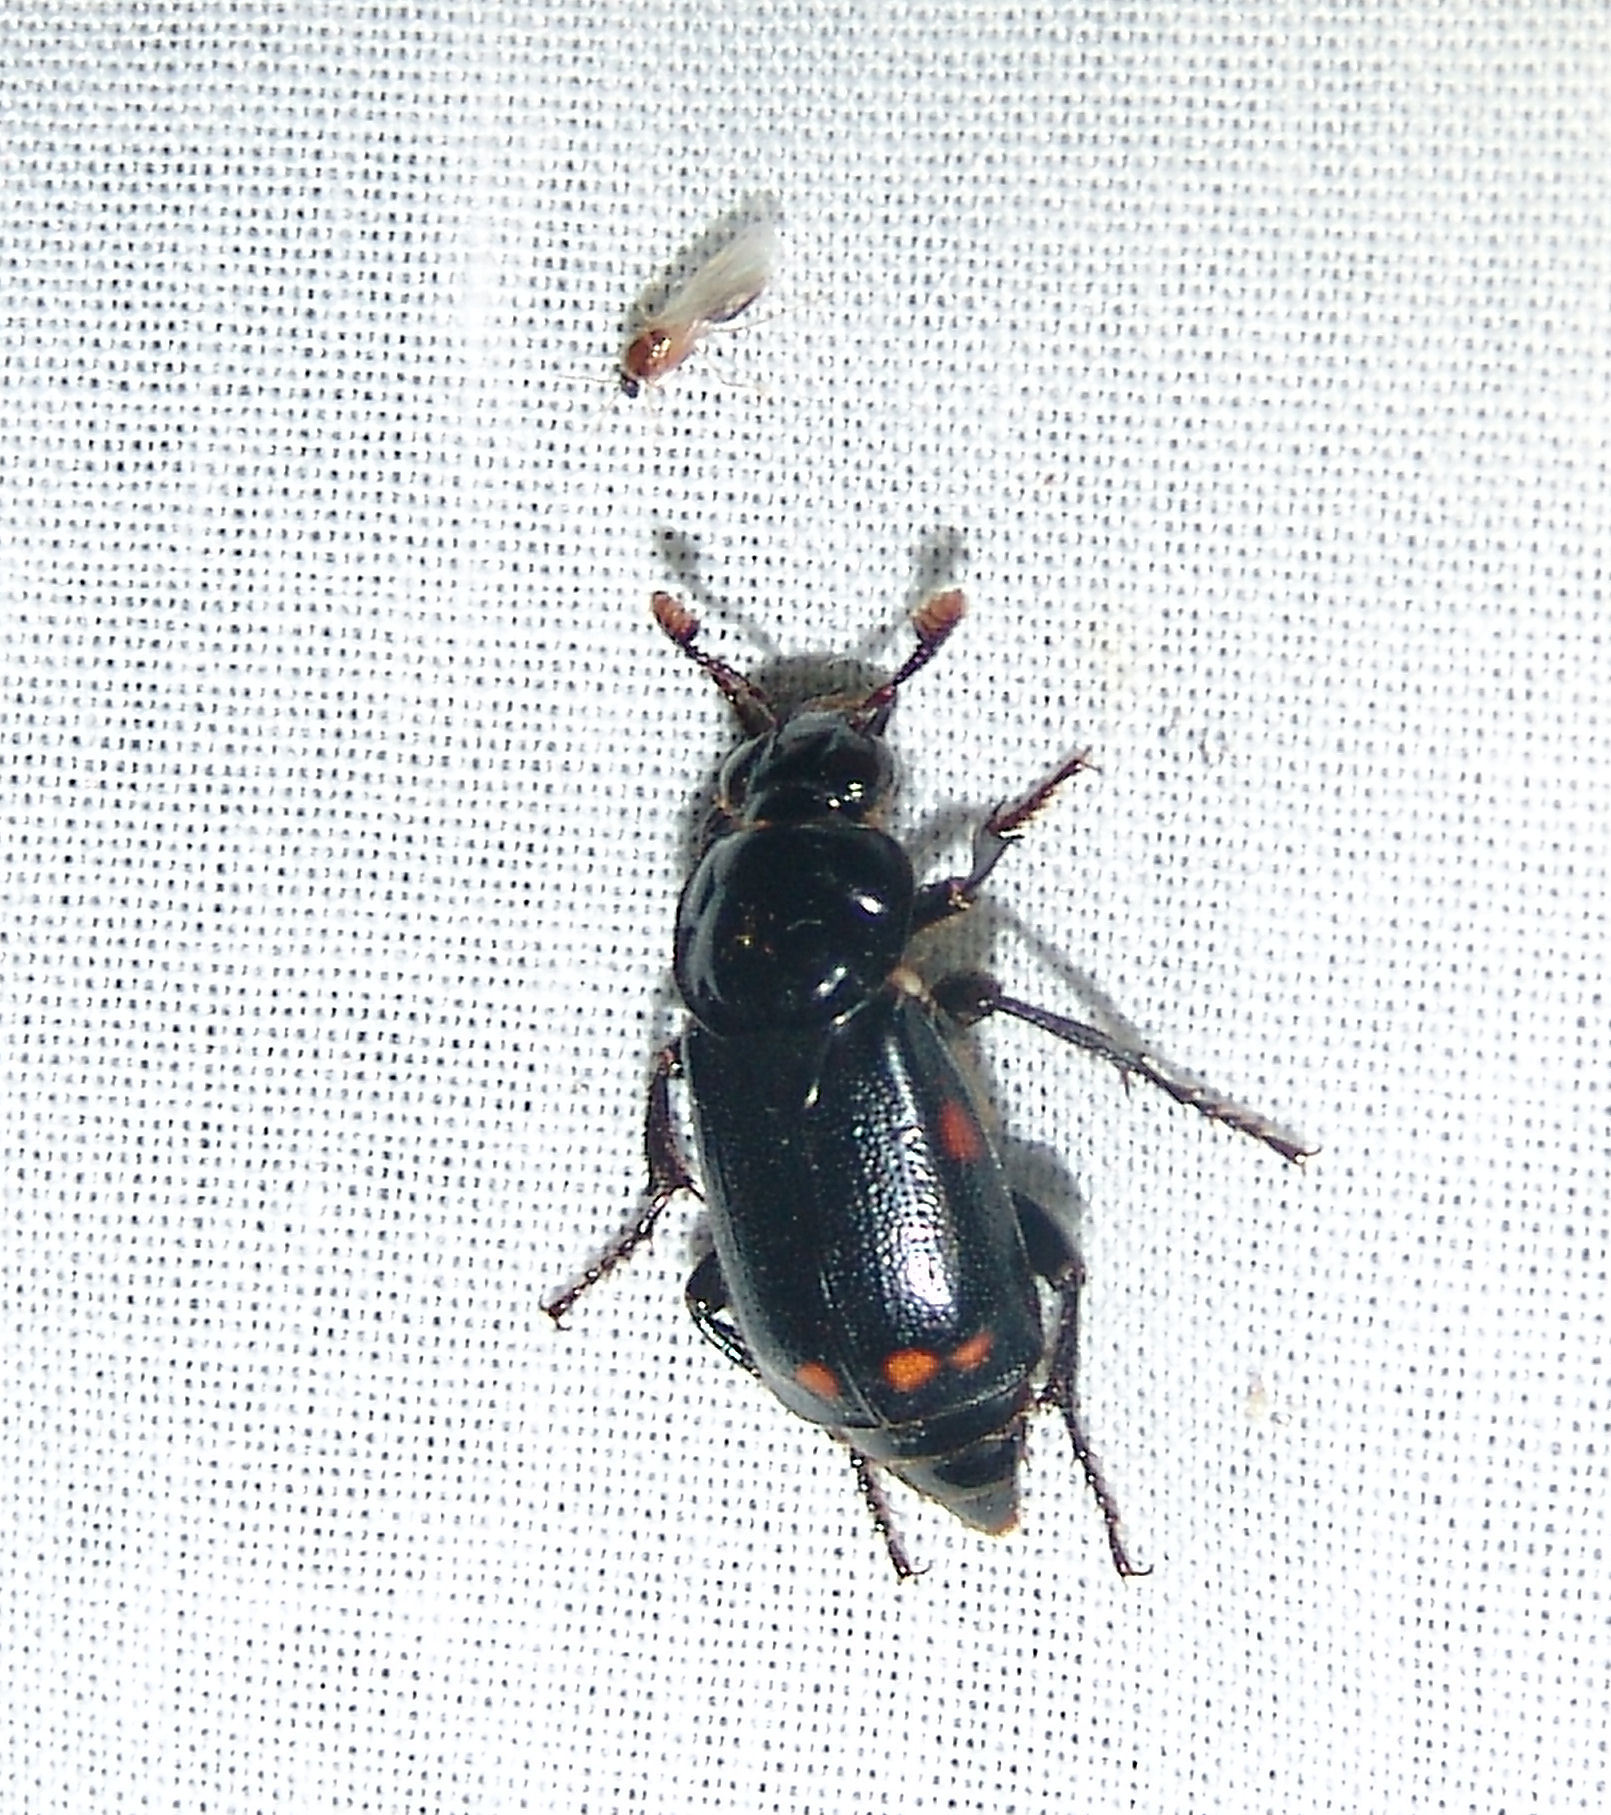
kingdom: Animalia
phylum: Arthropoda
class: Insecta
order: Coleoptera
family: Staphylinidae
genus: Nicrophorus
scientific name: Nicrophorus pustulatus
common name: Pustulated carrion beetle
